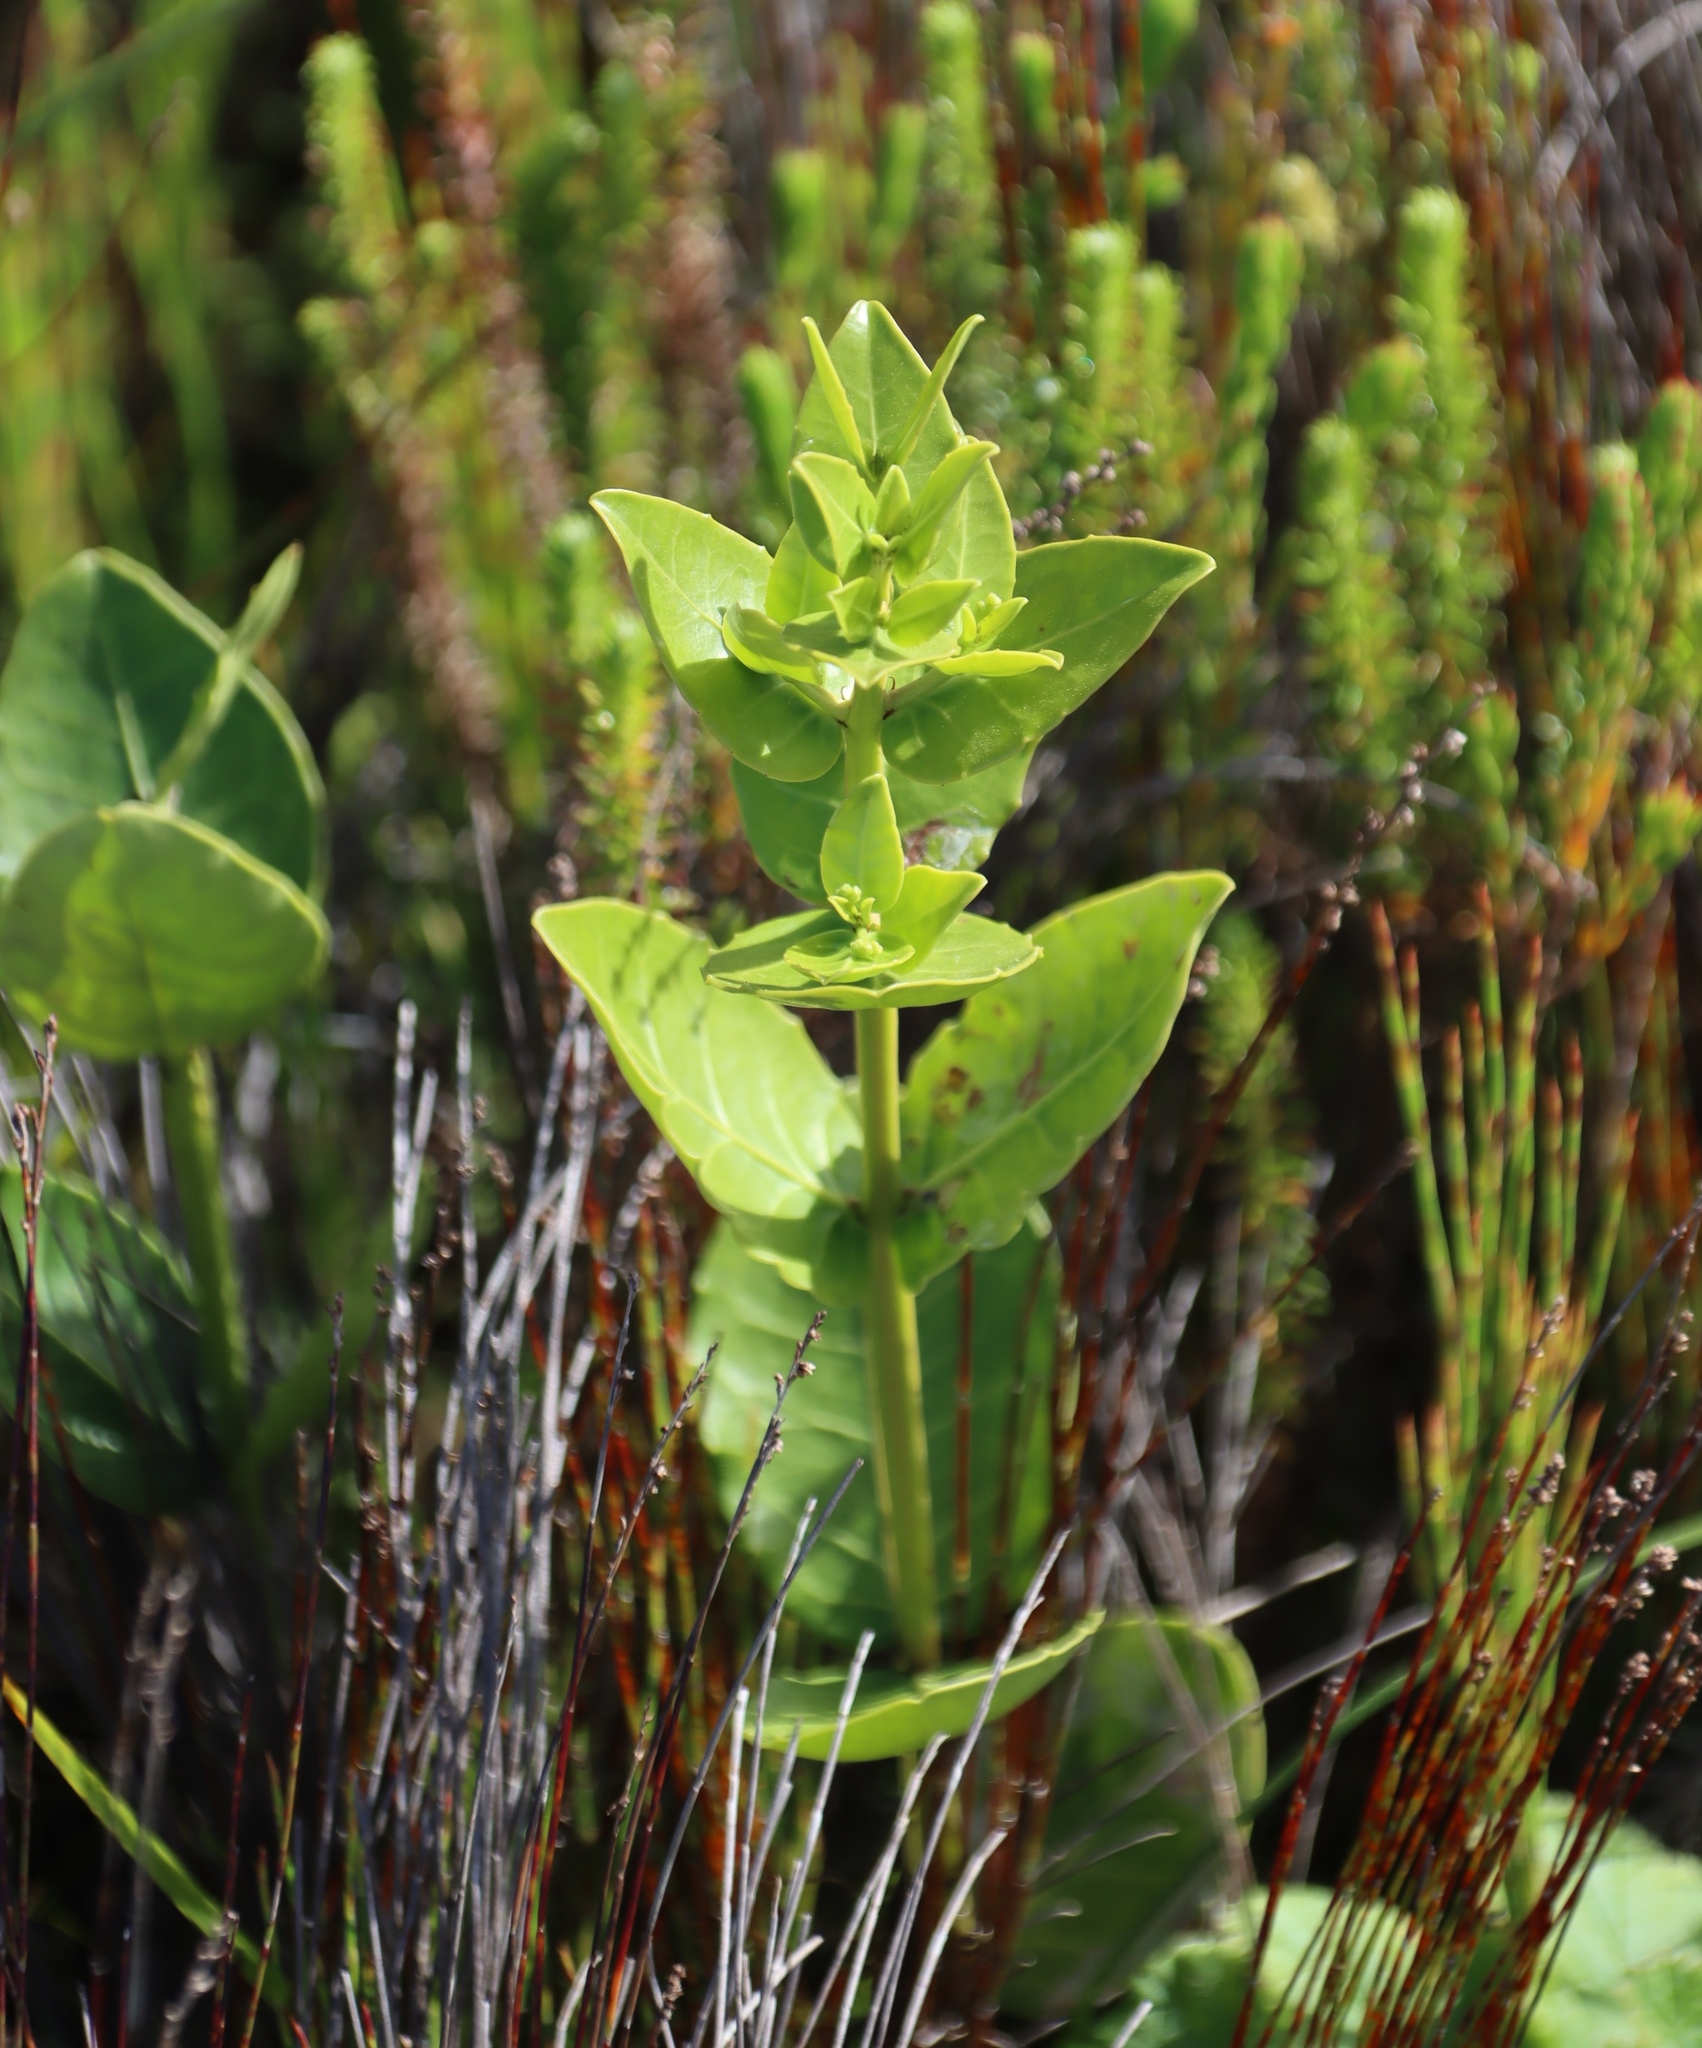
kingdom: Plantae
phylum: Tracheophyta
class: Magnoliopsida
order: Celastrales
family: Celastraceae
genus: Lauridia
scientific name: Lauridia tetragona
